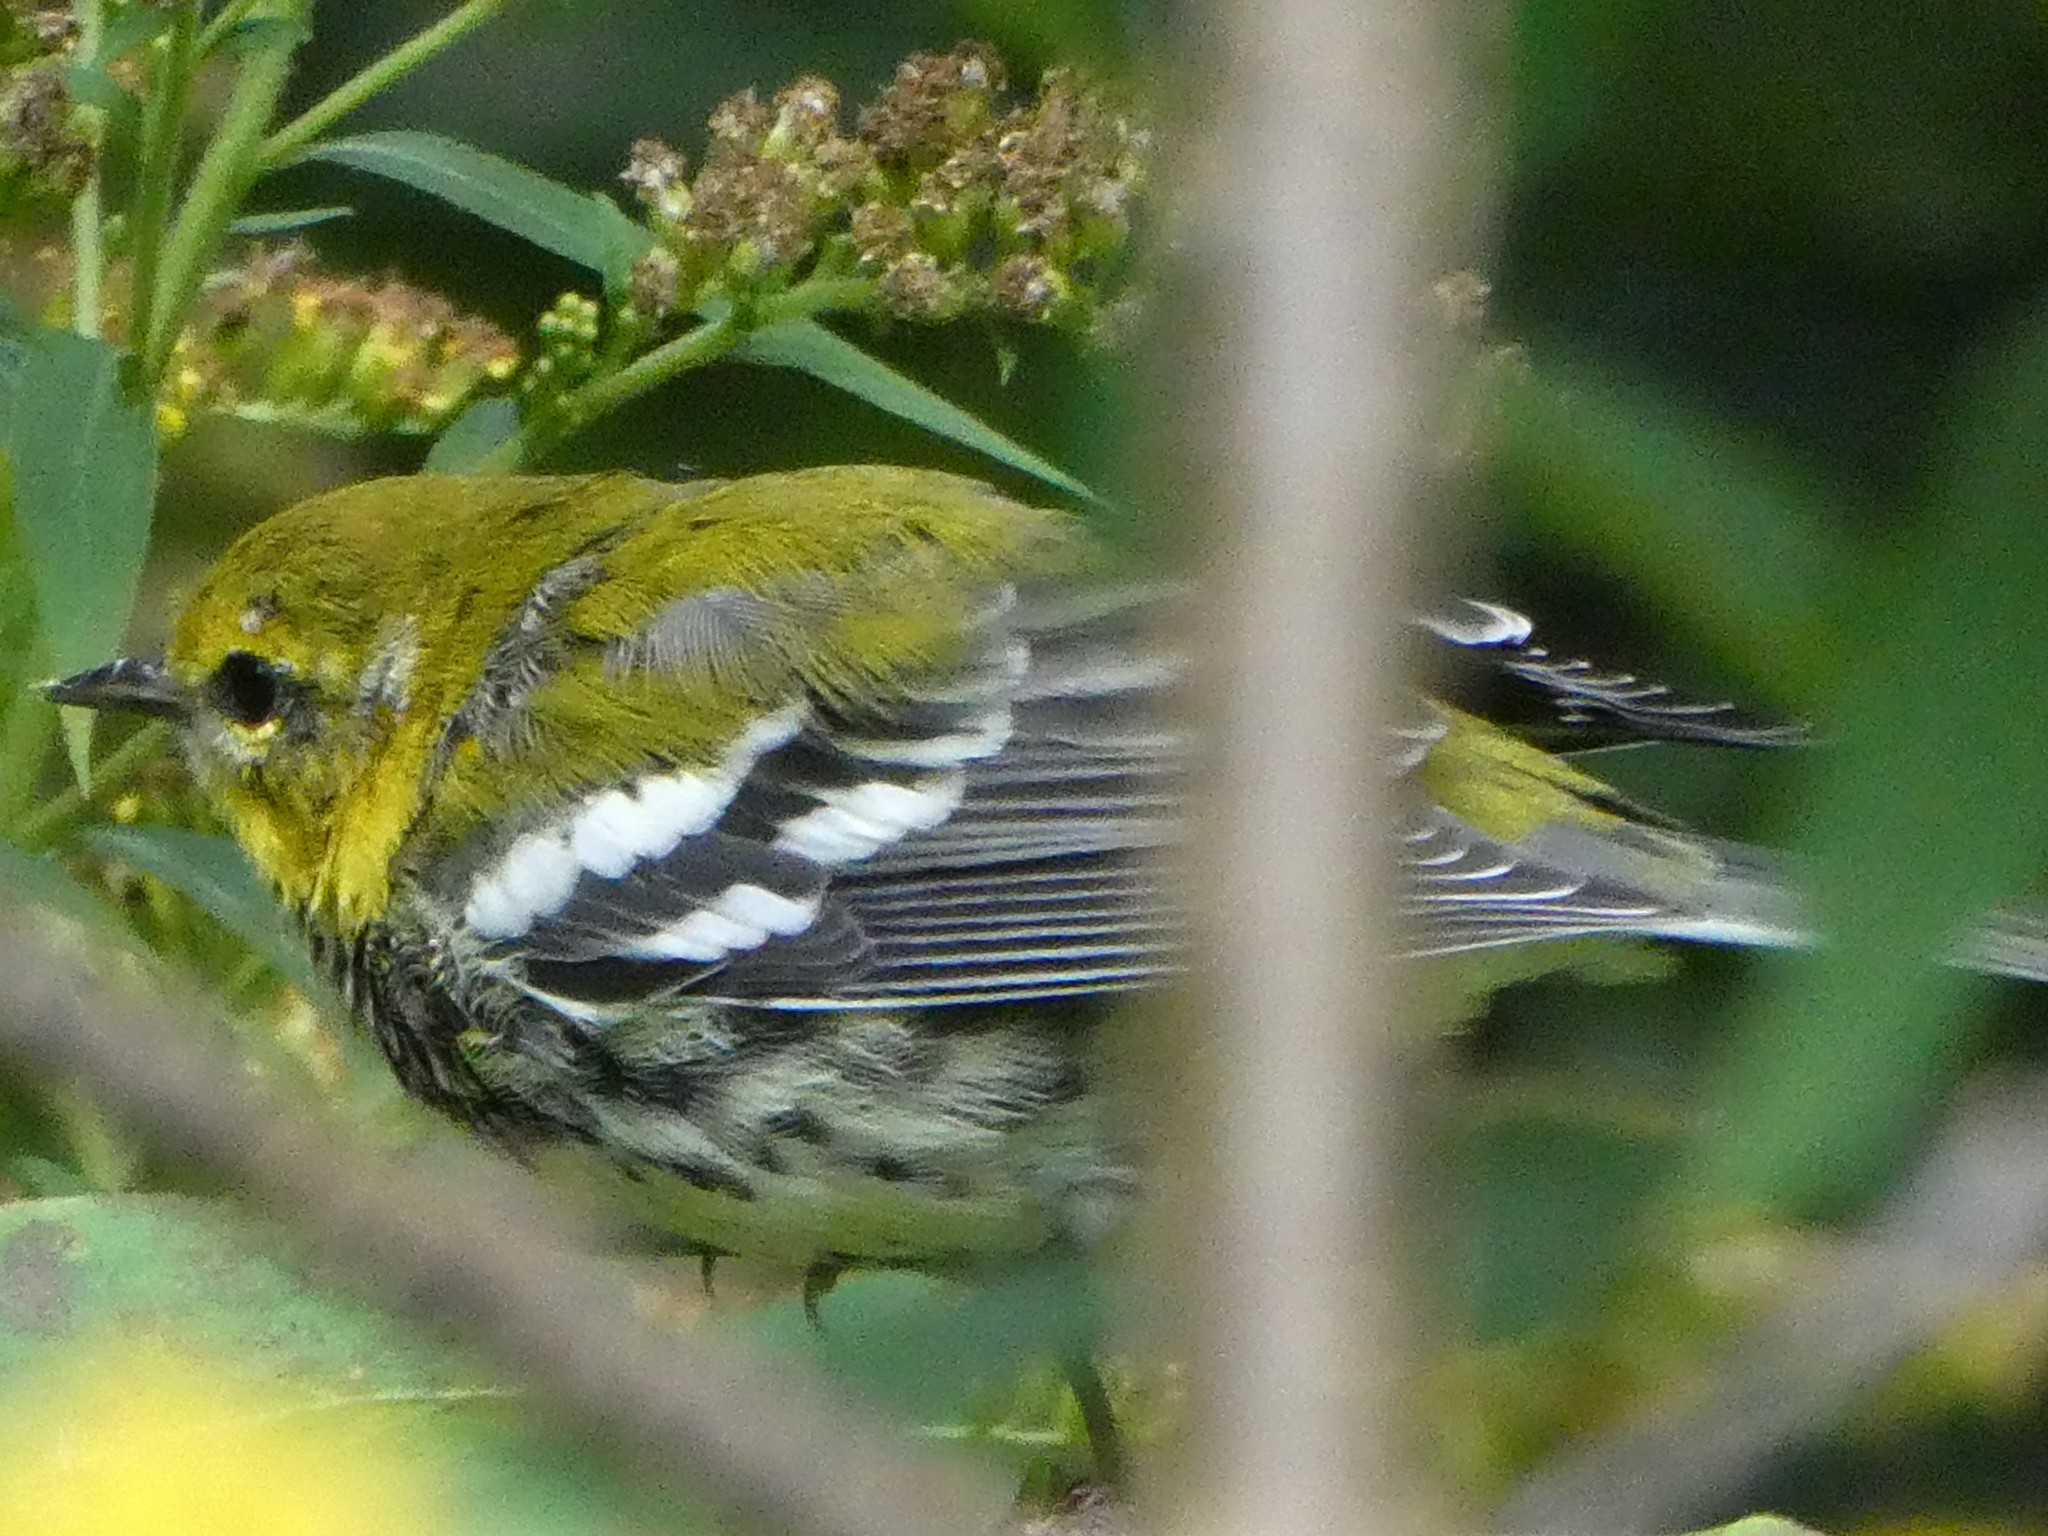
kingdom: Animalia
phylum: Chordata
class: Aves
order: Passeriformes
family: Parulidae
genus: Setophaga
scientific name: Setophaga virens
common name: Black-throated green warbler
